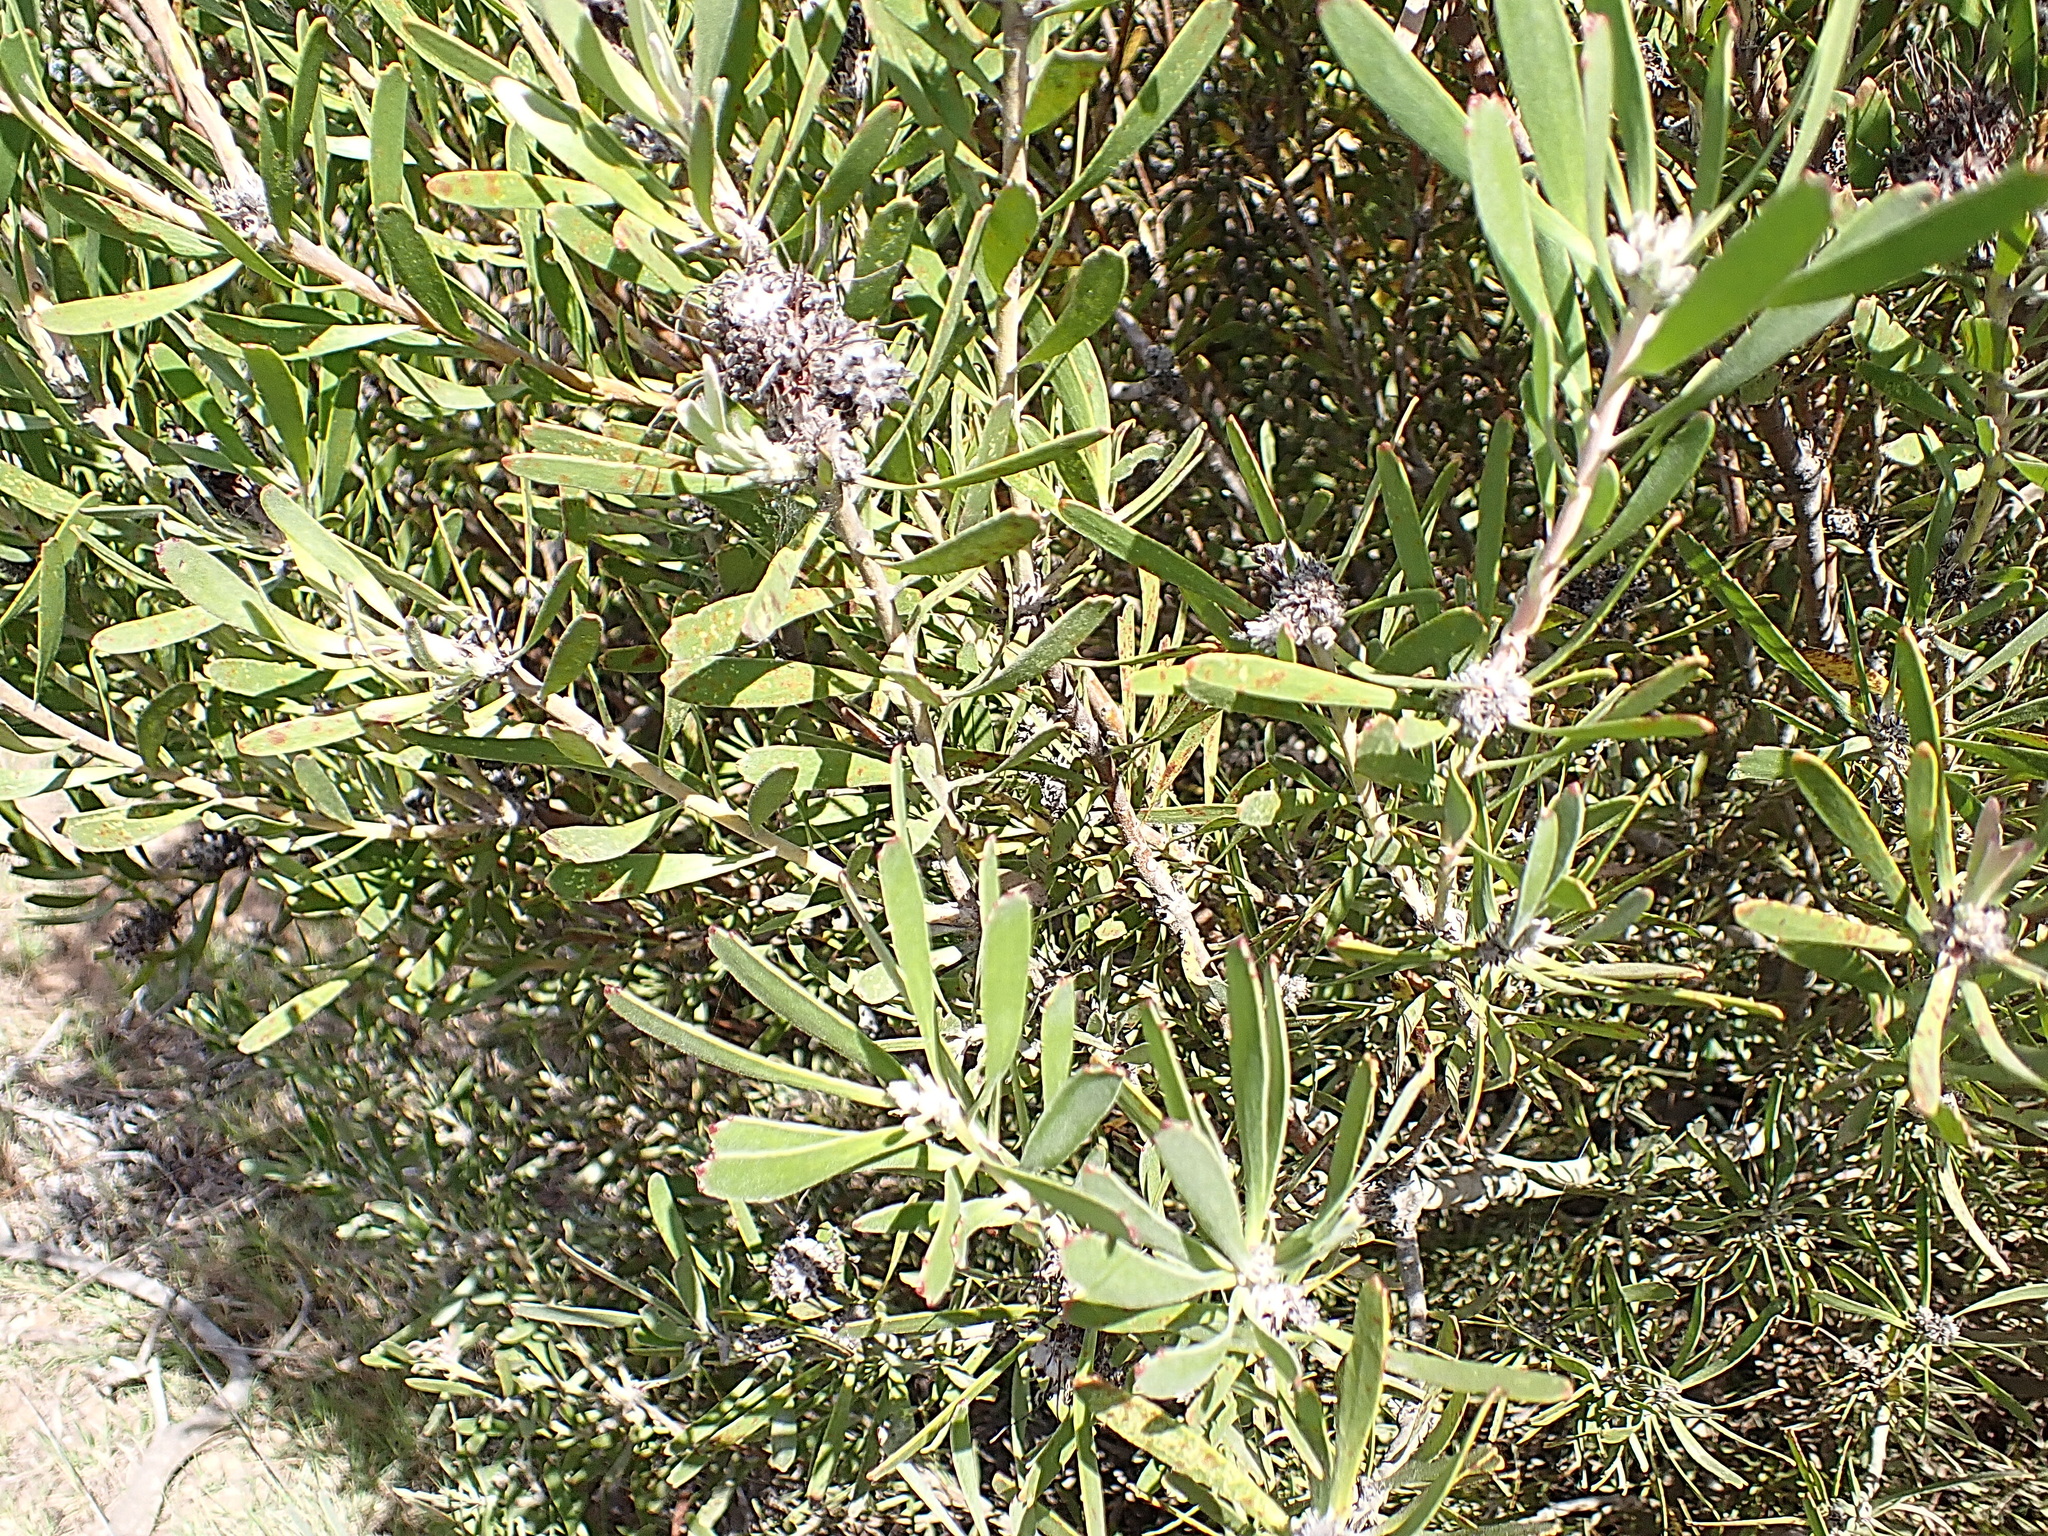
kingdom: Plantae
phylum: Tracheophyta
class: Magnoliopsida
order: Proteales
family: Proteaceae
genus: Leucospermum
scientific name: Leucospermum muirii
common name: Albertinia pincushion
